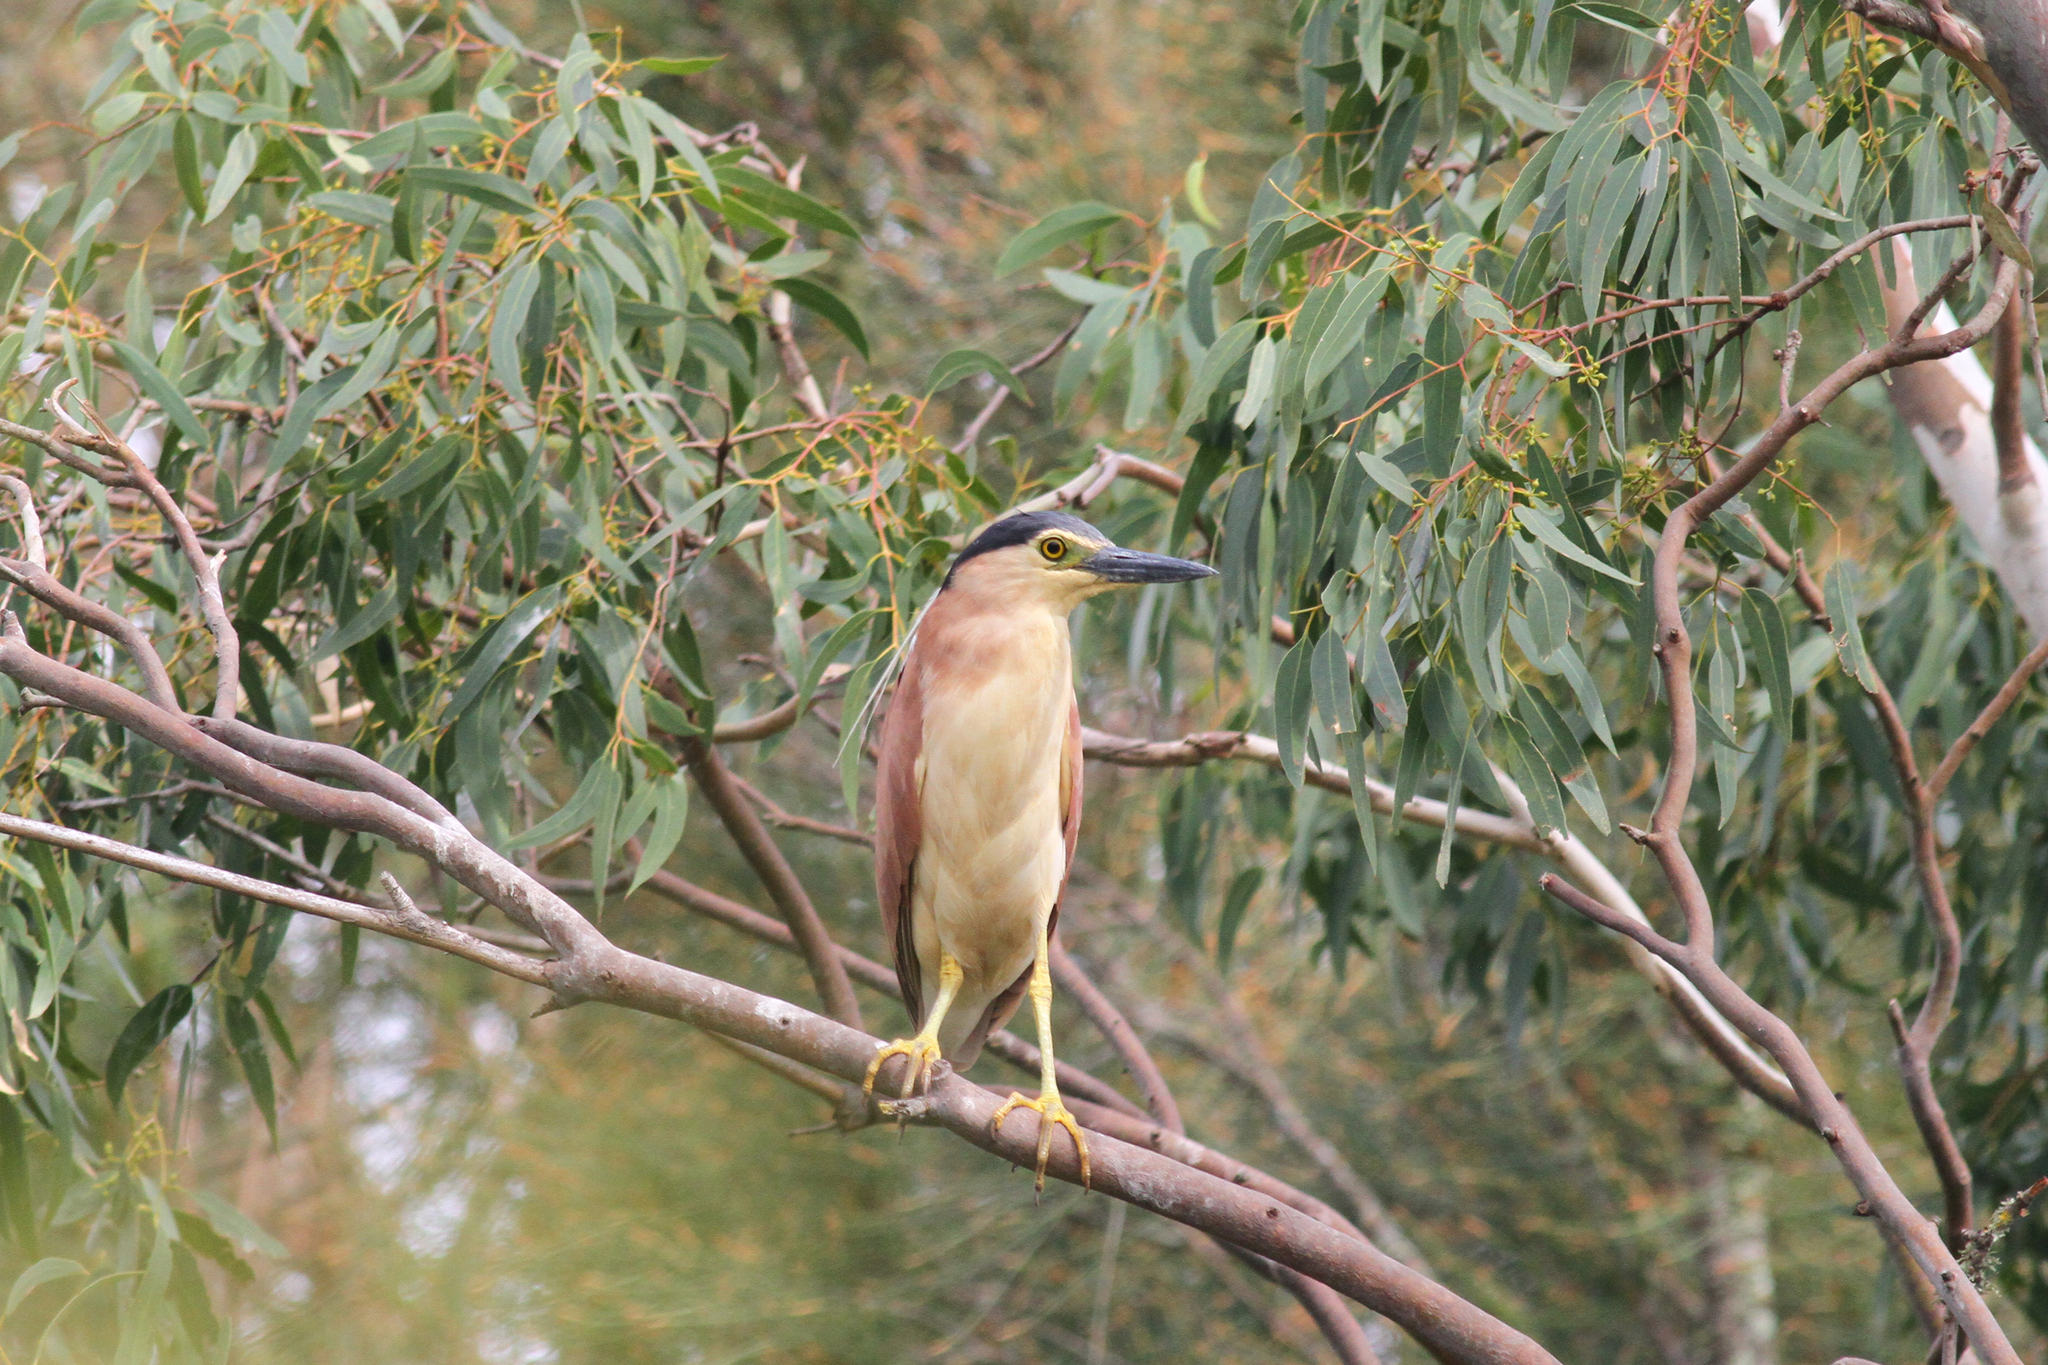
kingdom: Animalia
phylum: Chordata
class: Aves
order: Pelecaniformes
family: Ardeidae
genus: Nycticorax
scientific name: Nycticorax caledonicus
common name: Rufous night-heron
